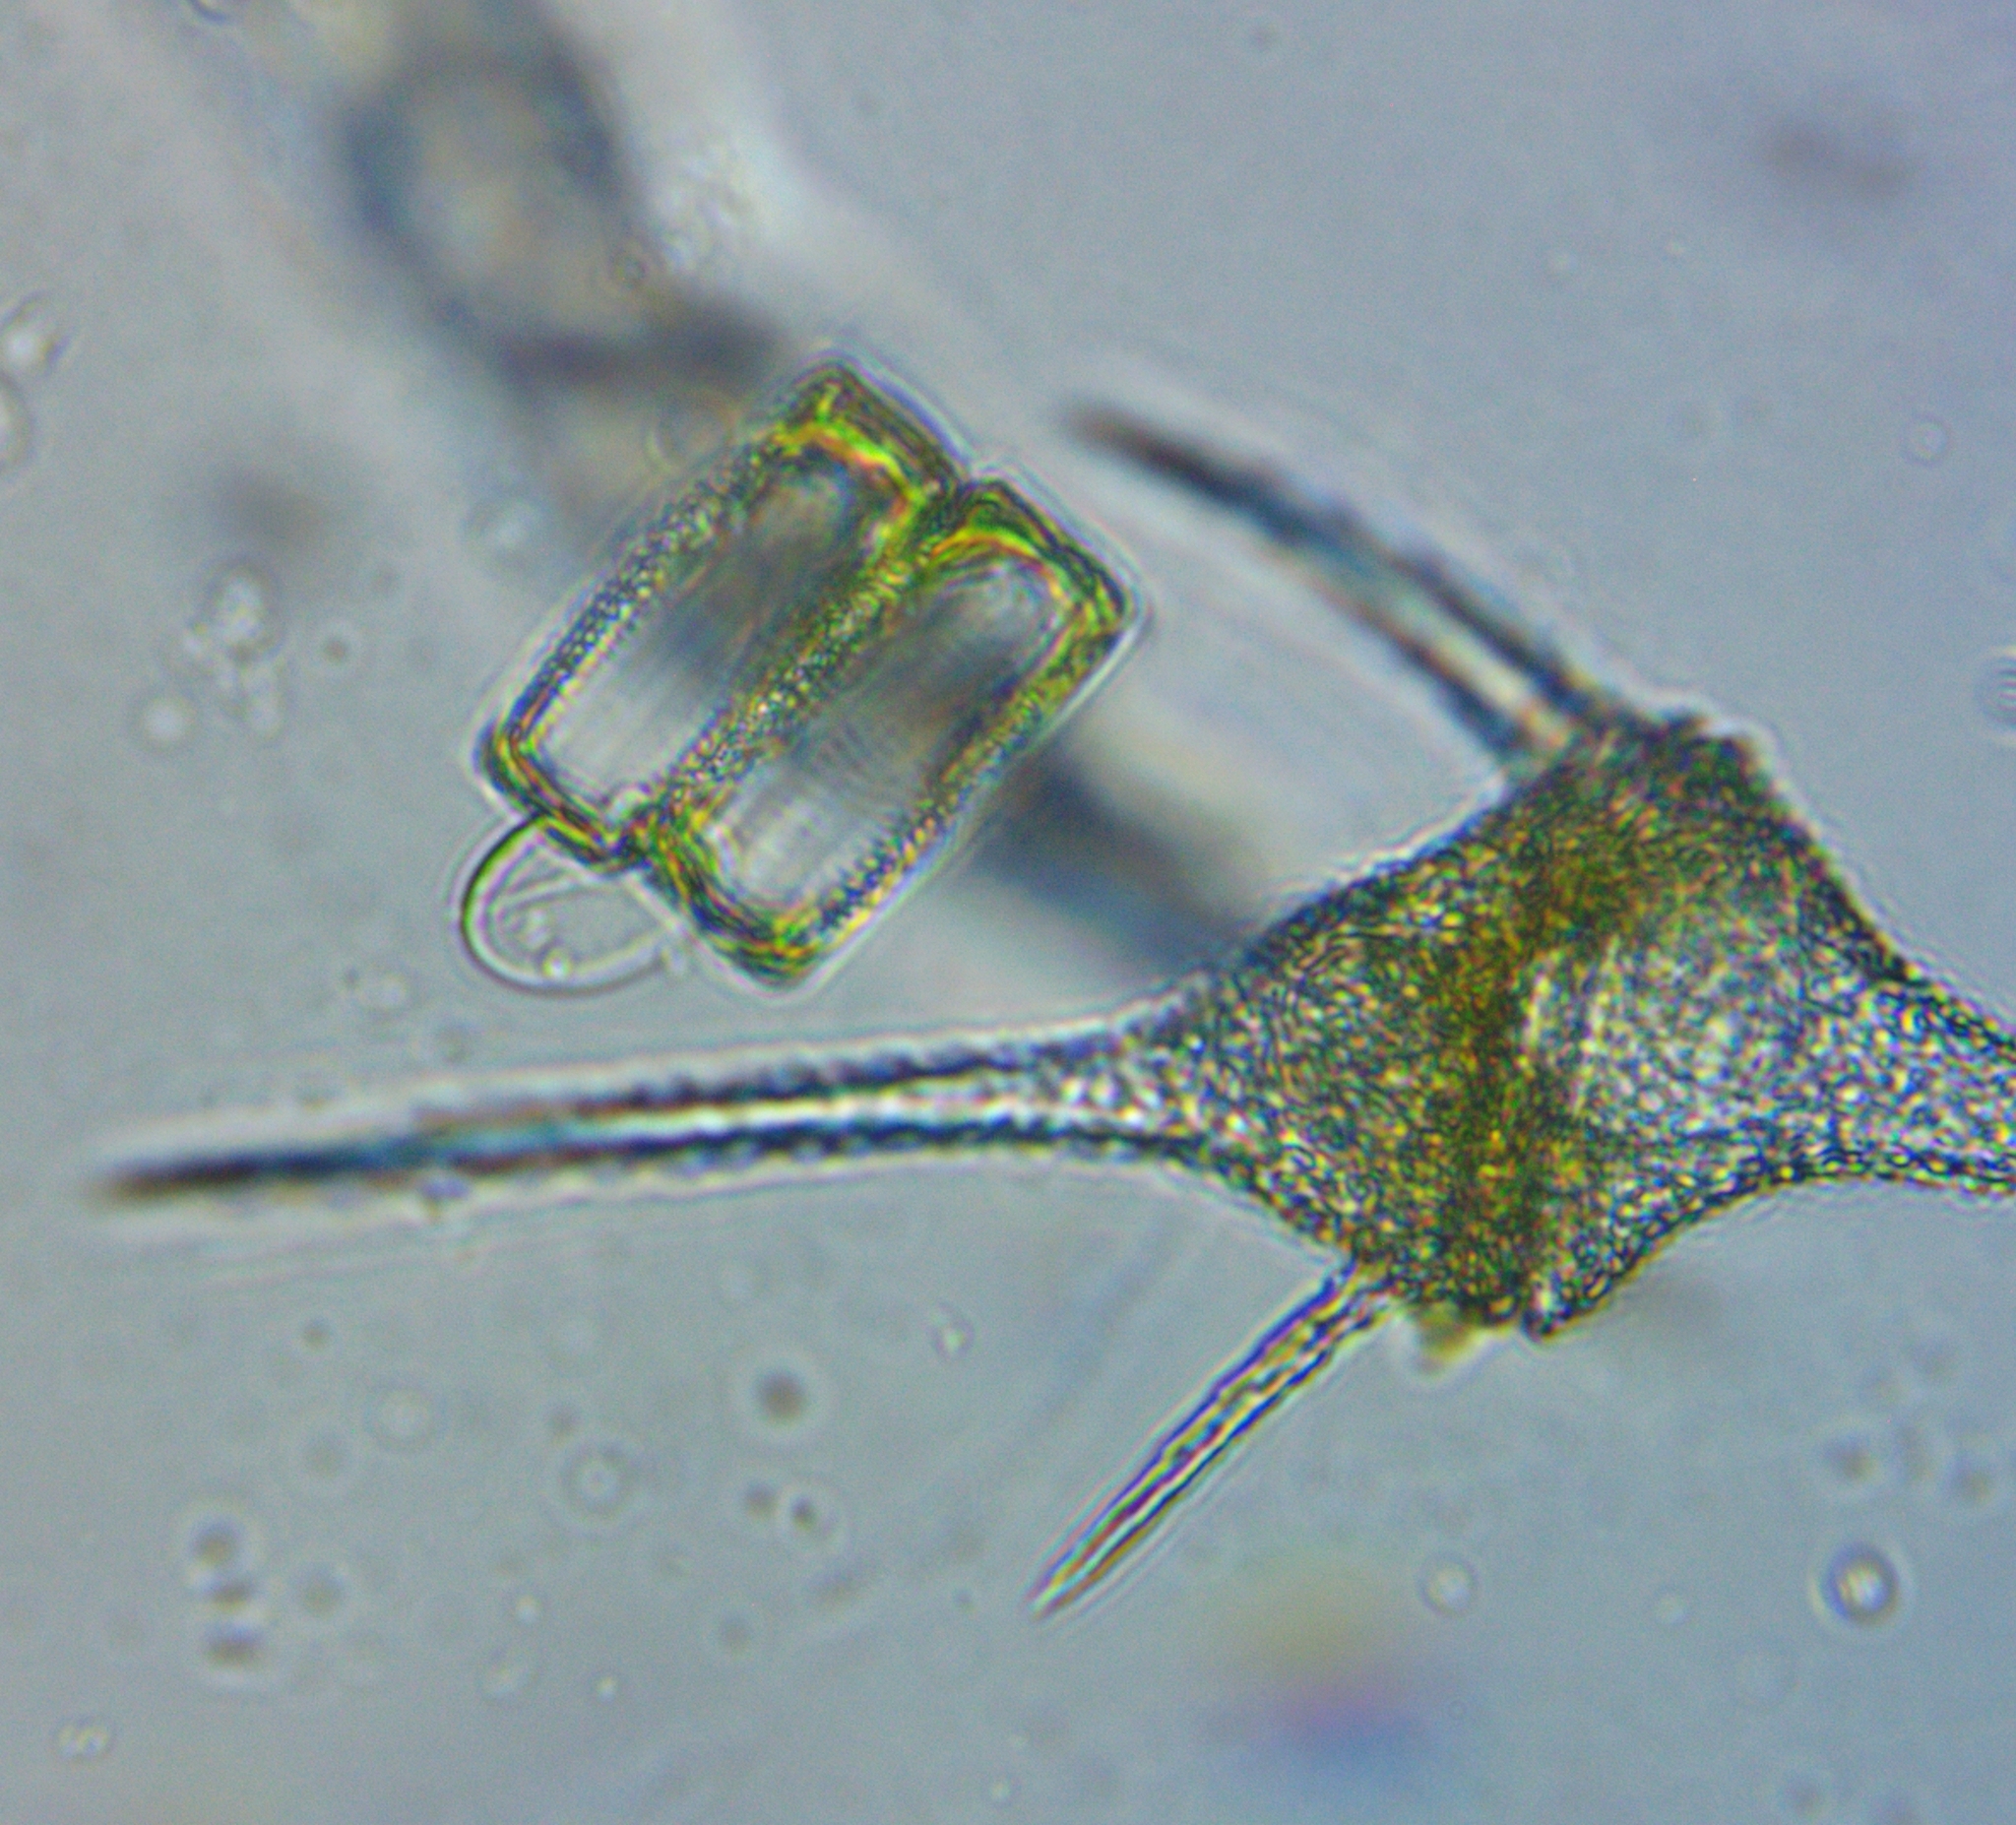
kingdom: Chromista
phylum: Myzozoa
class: Dinophyceae
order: Gonyaulacales
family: Ceratiaceae
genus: Ceratium
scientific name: Ceratium hirundinella
